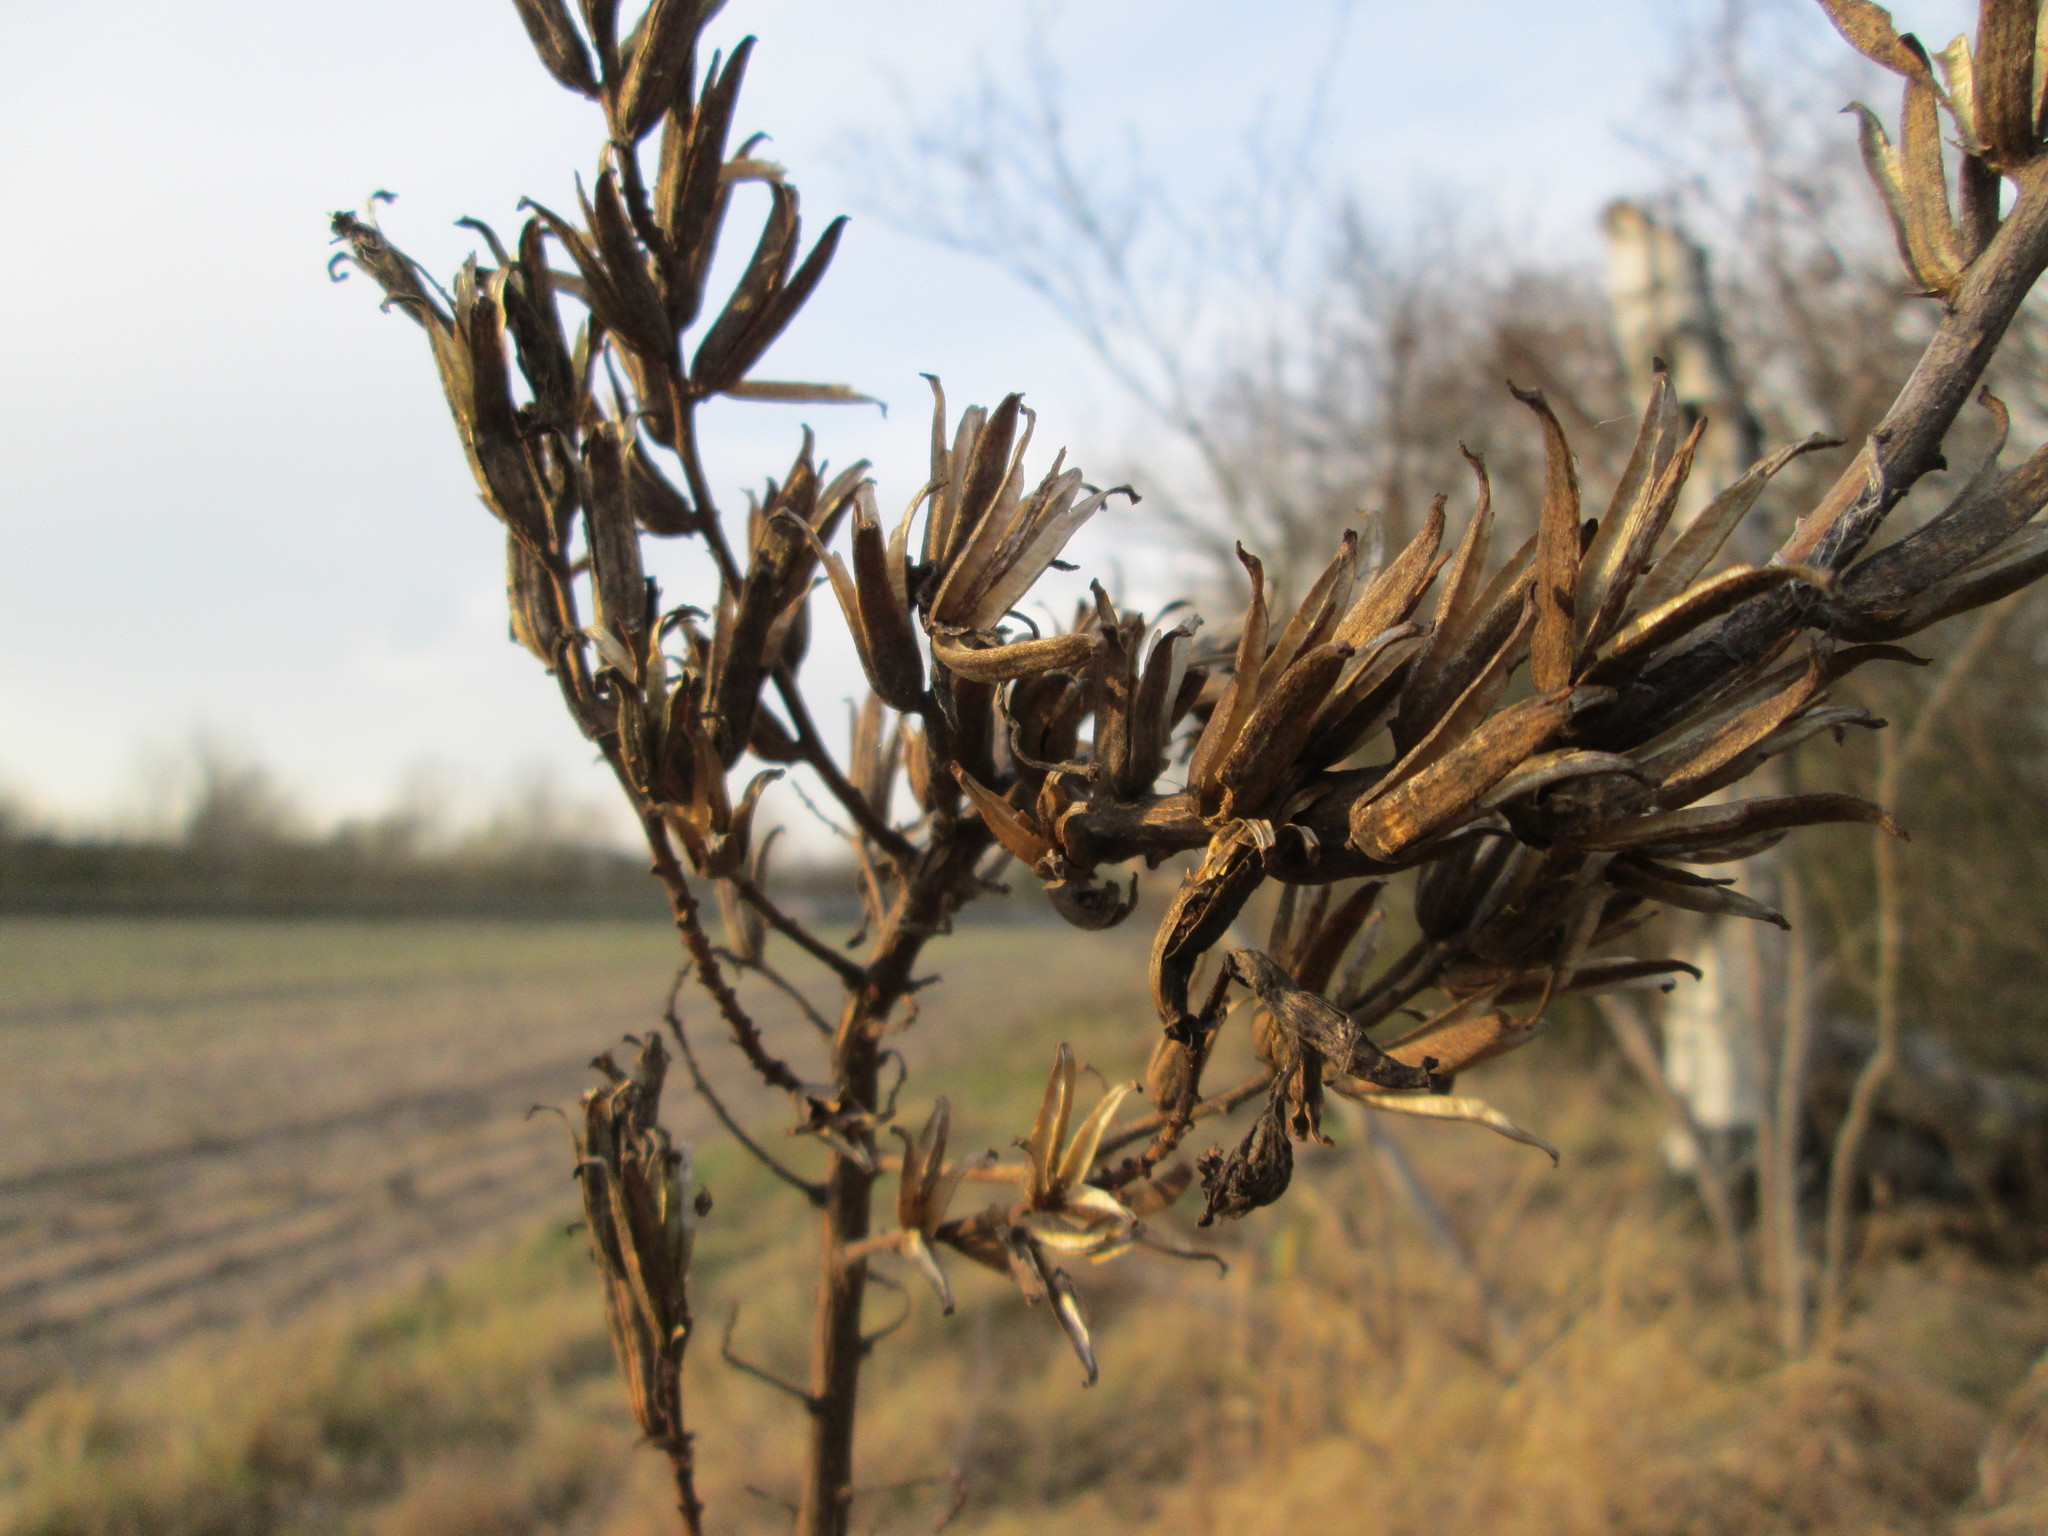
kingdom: Plantae
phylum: Tracheophyta
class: Magnoliopsida
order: Myrtales
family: Onagraceae
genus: Oenothera
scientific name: Oenothera biennis
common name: Common evening-primrose
